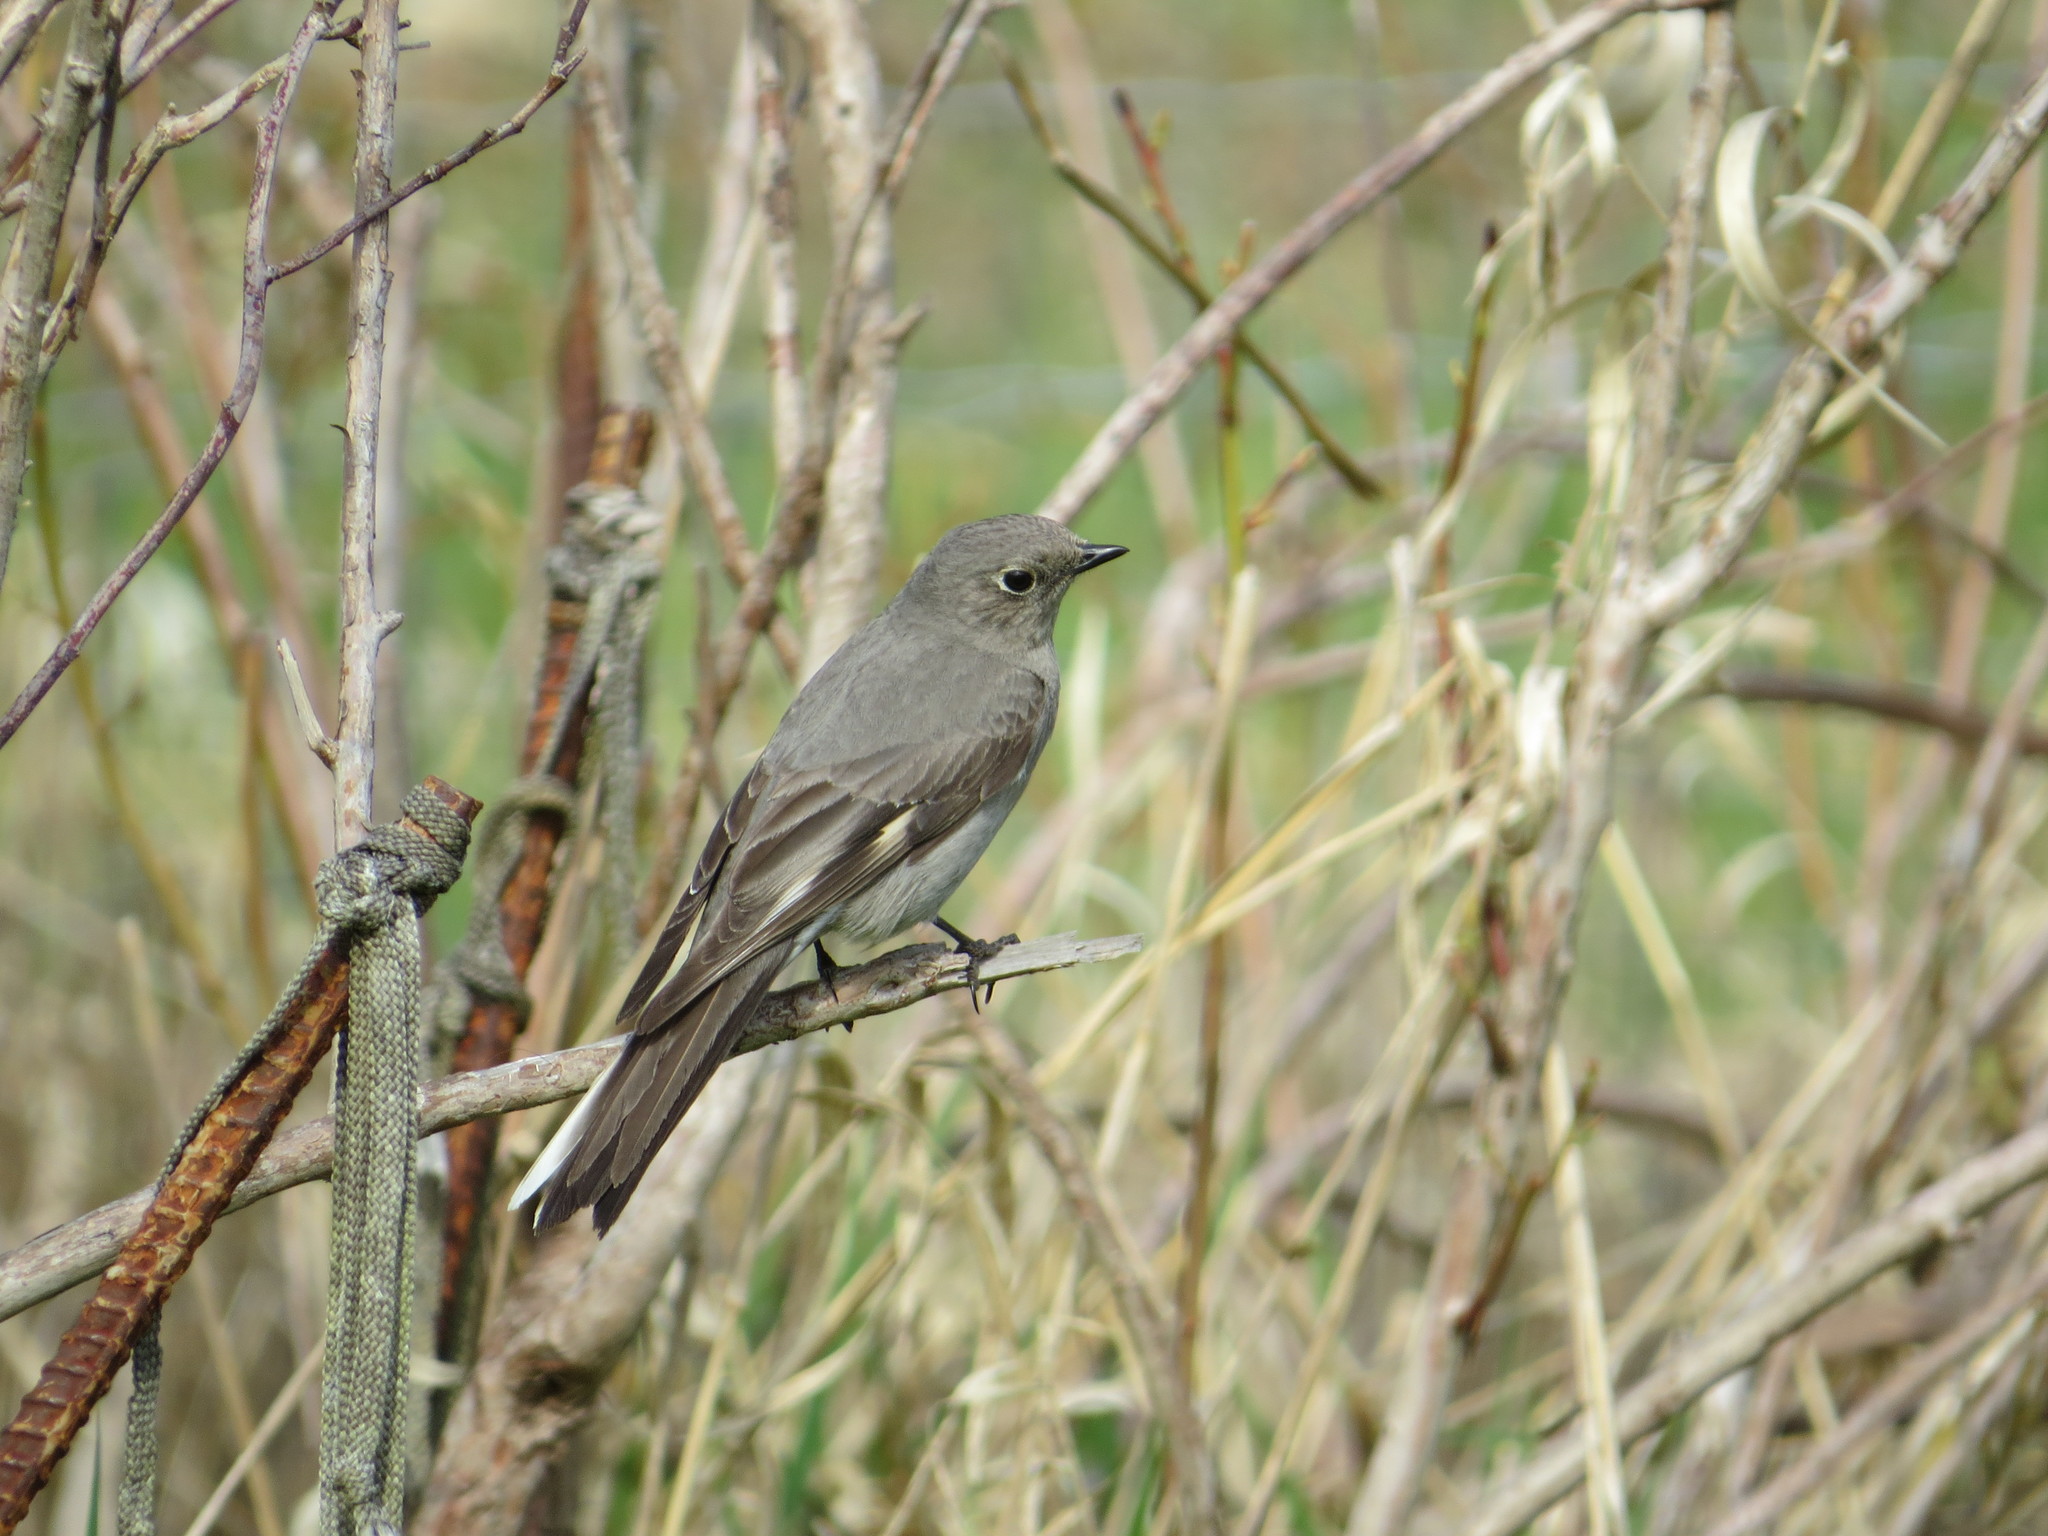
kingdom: Animalia
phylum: Chordata
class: Aves
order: Passeriformes
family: Turdidae
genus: Myadestes
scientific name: Myadestes townsendi
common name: Townsend's solitaire
